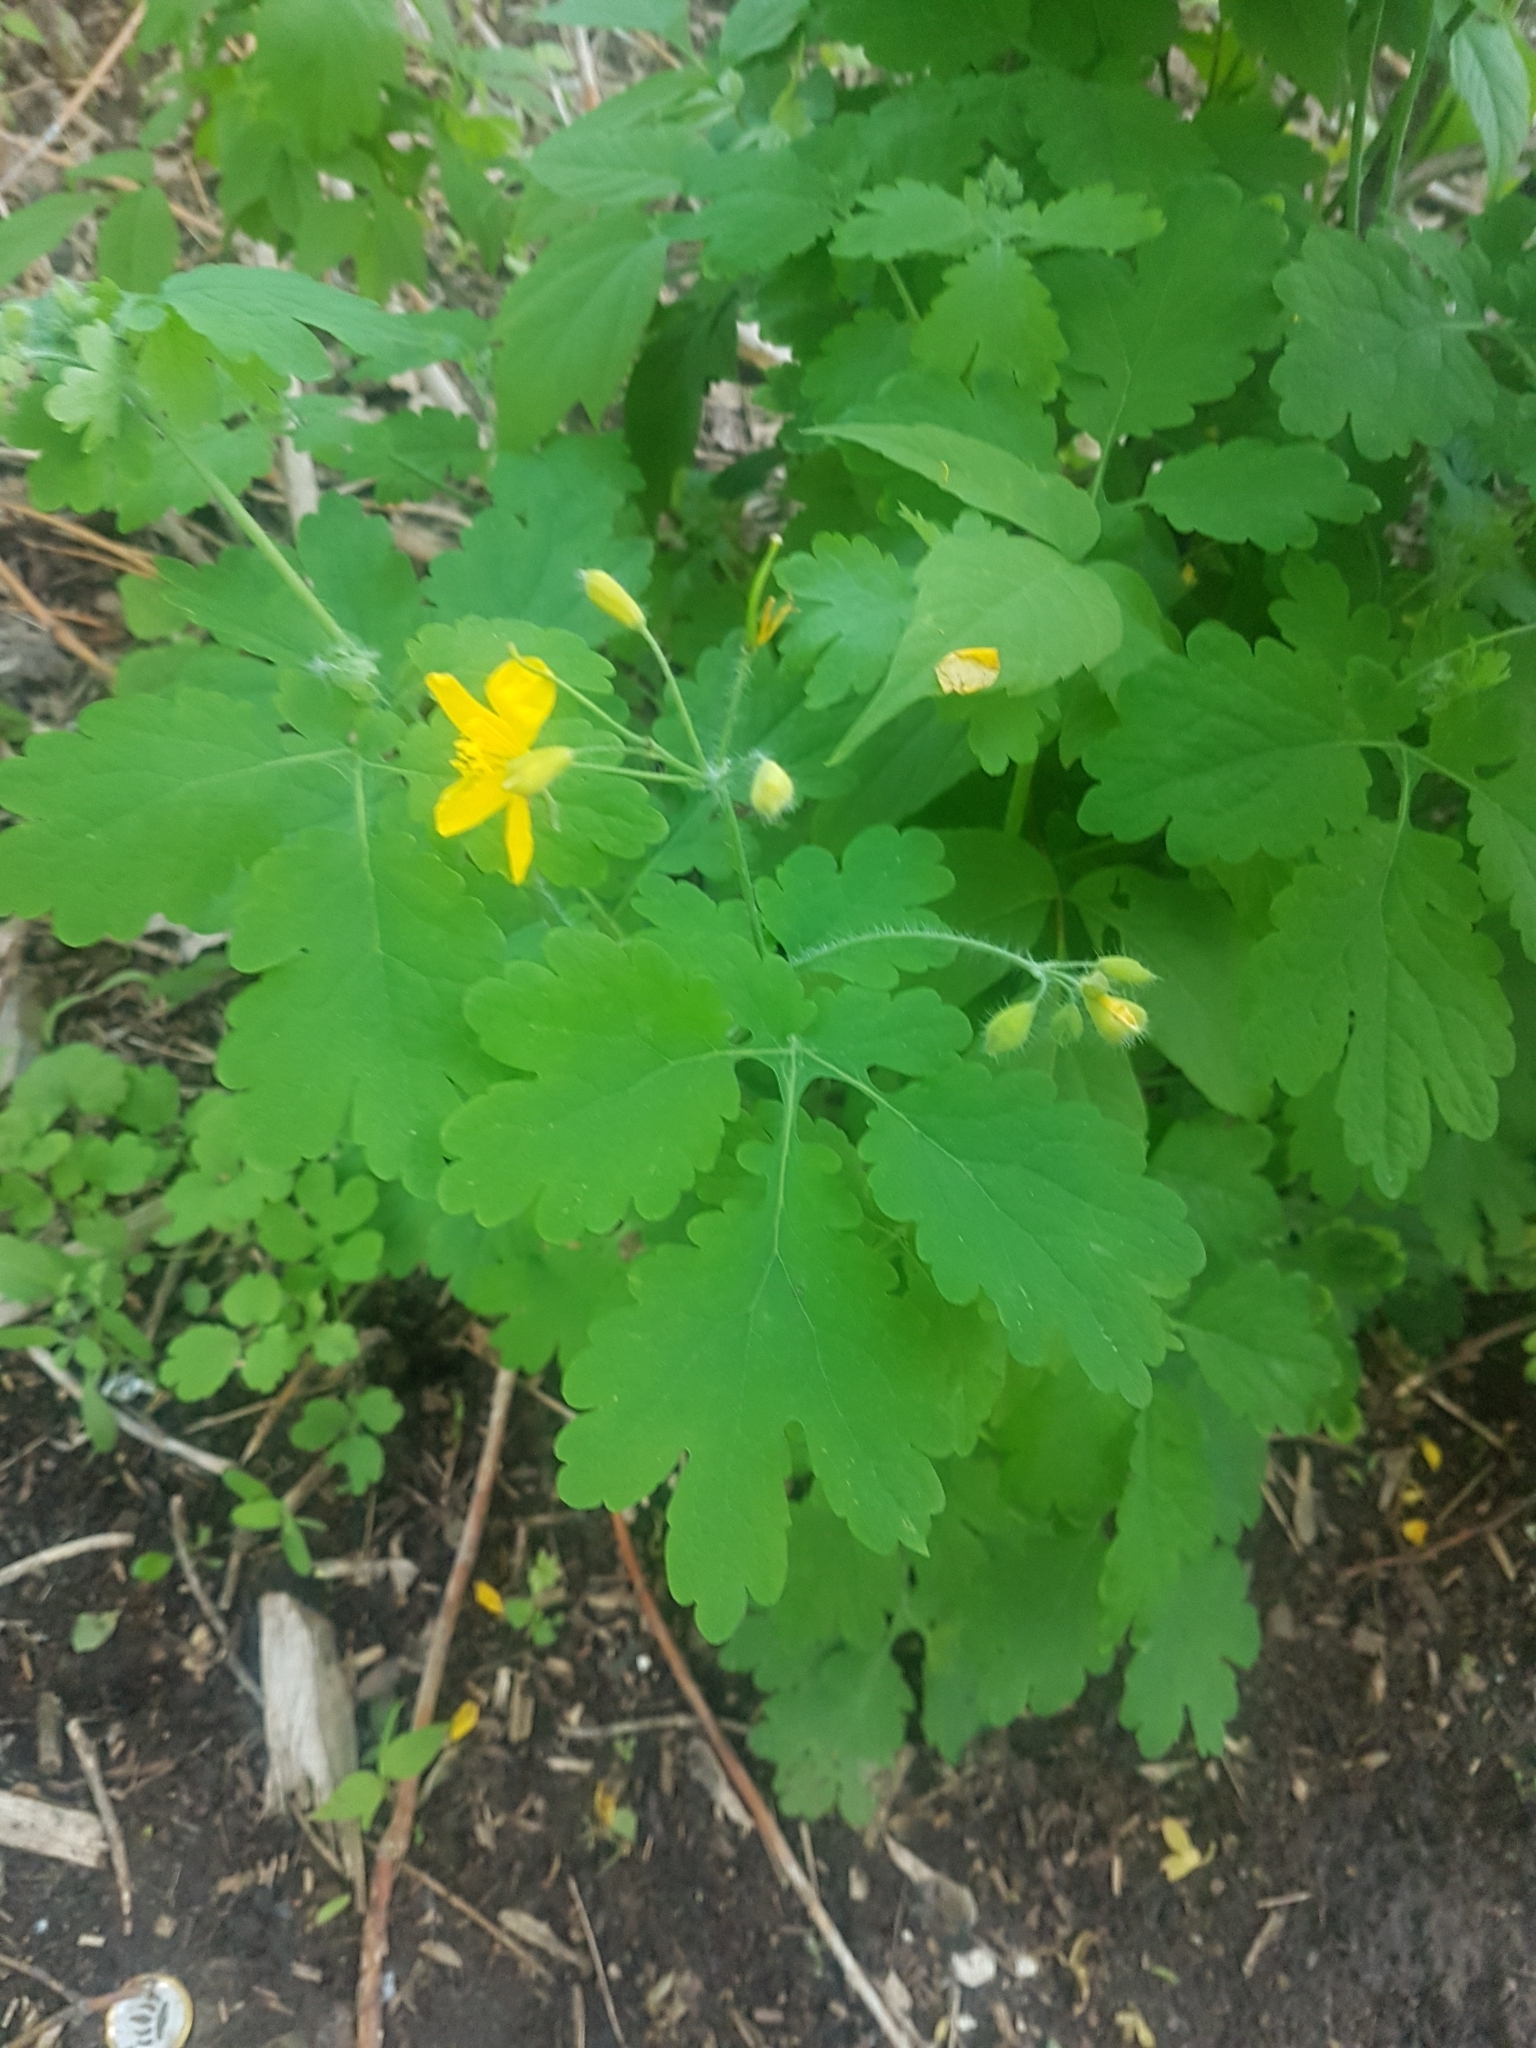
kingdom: Plantae
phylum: Tracheophyta
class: Magnoliopsida
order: Ranunculales
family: Papaveraceae
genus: Chelidonium
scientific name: Chelidonium majus
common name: Greater celandine
